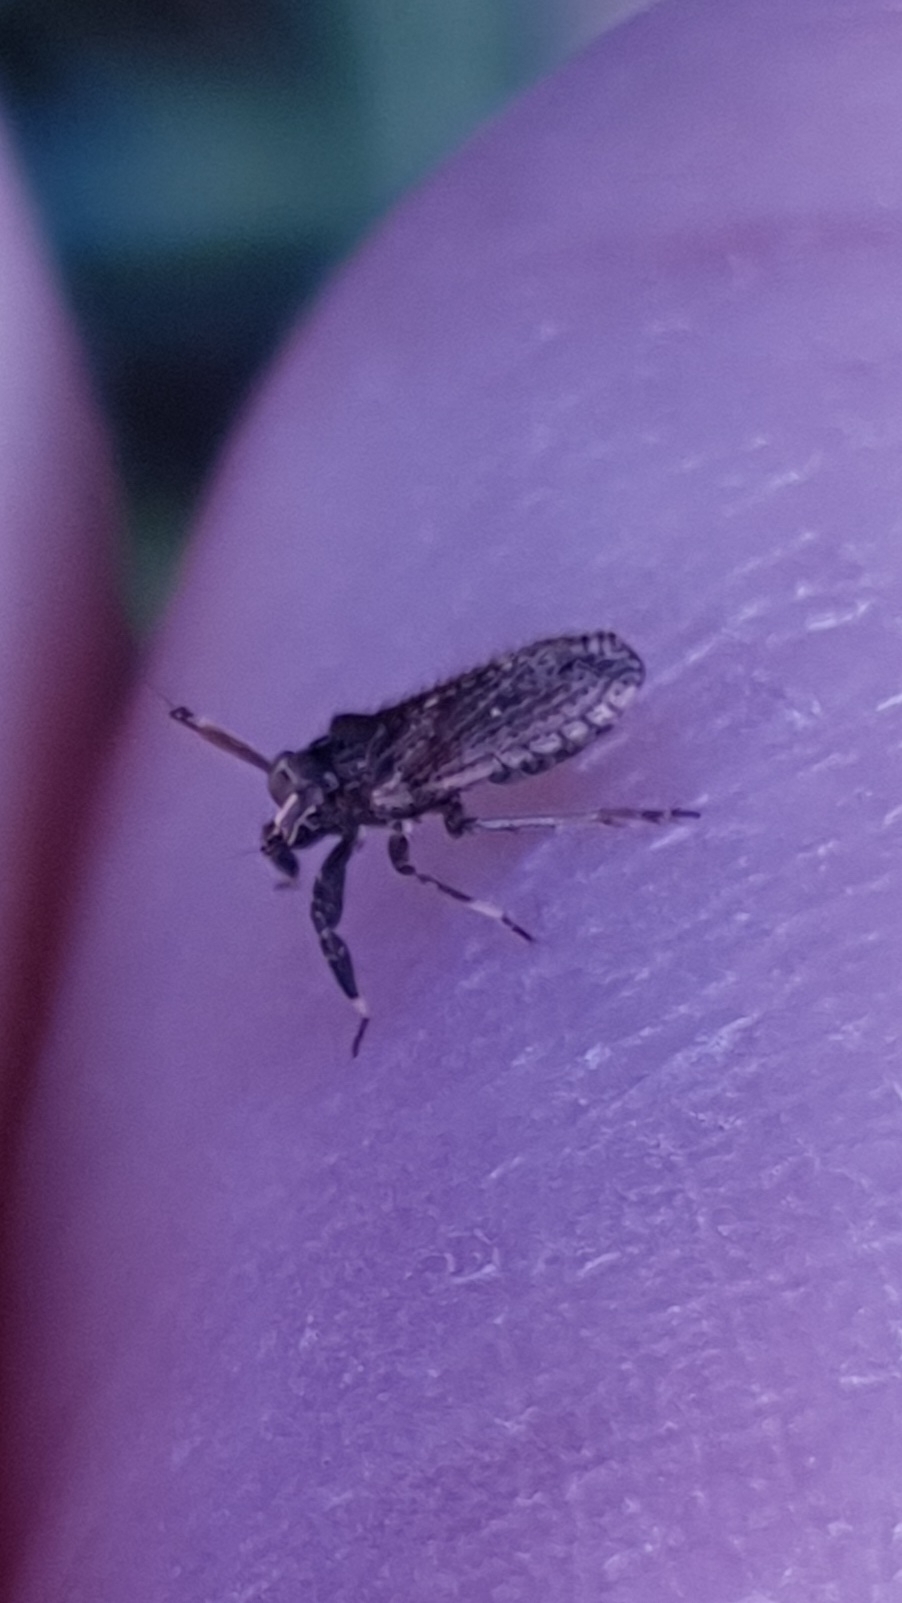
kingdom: Animalia
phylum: Arthropoda
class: Insecta
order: Hemiptera
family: Delphacidae
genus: Asiraca
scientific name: Asiraca clavicornis
